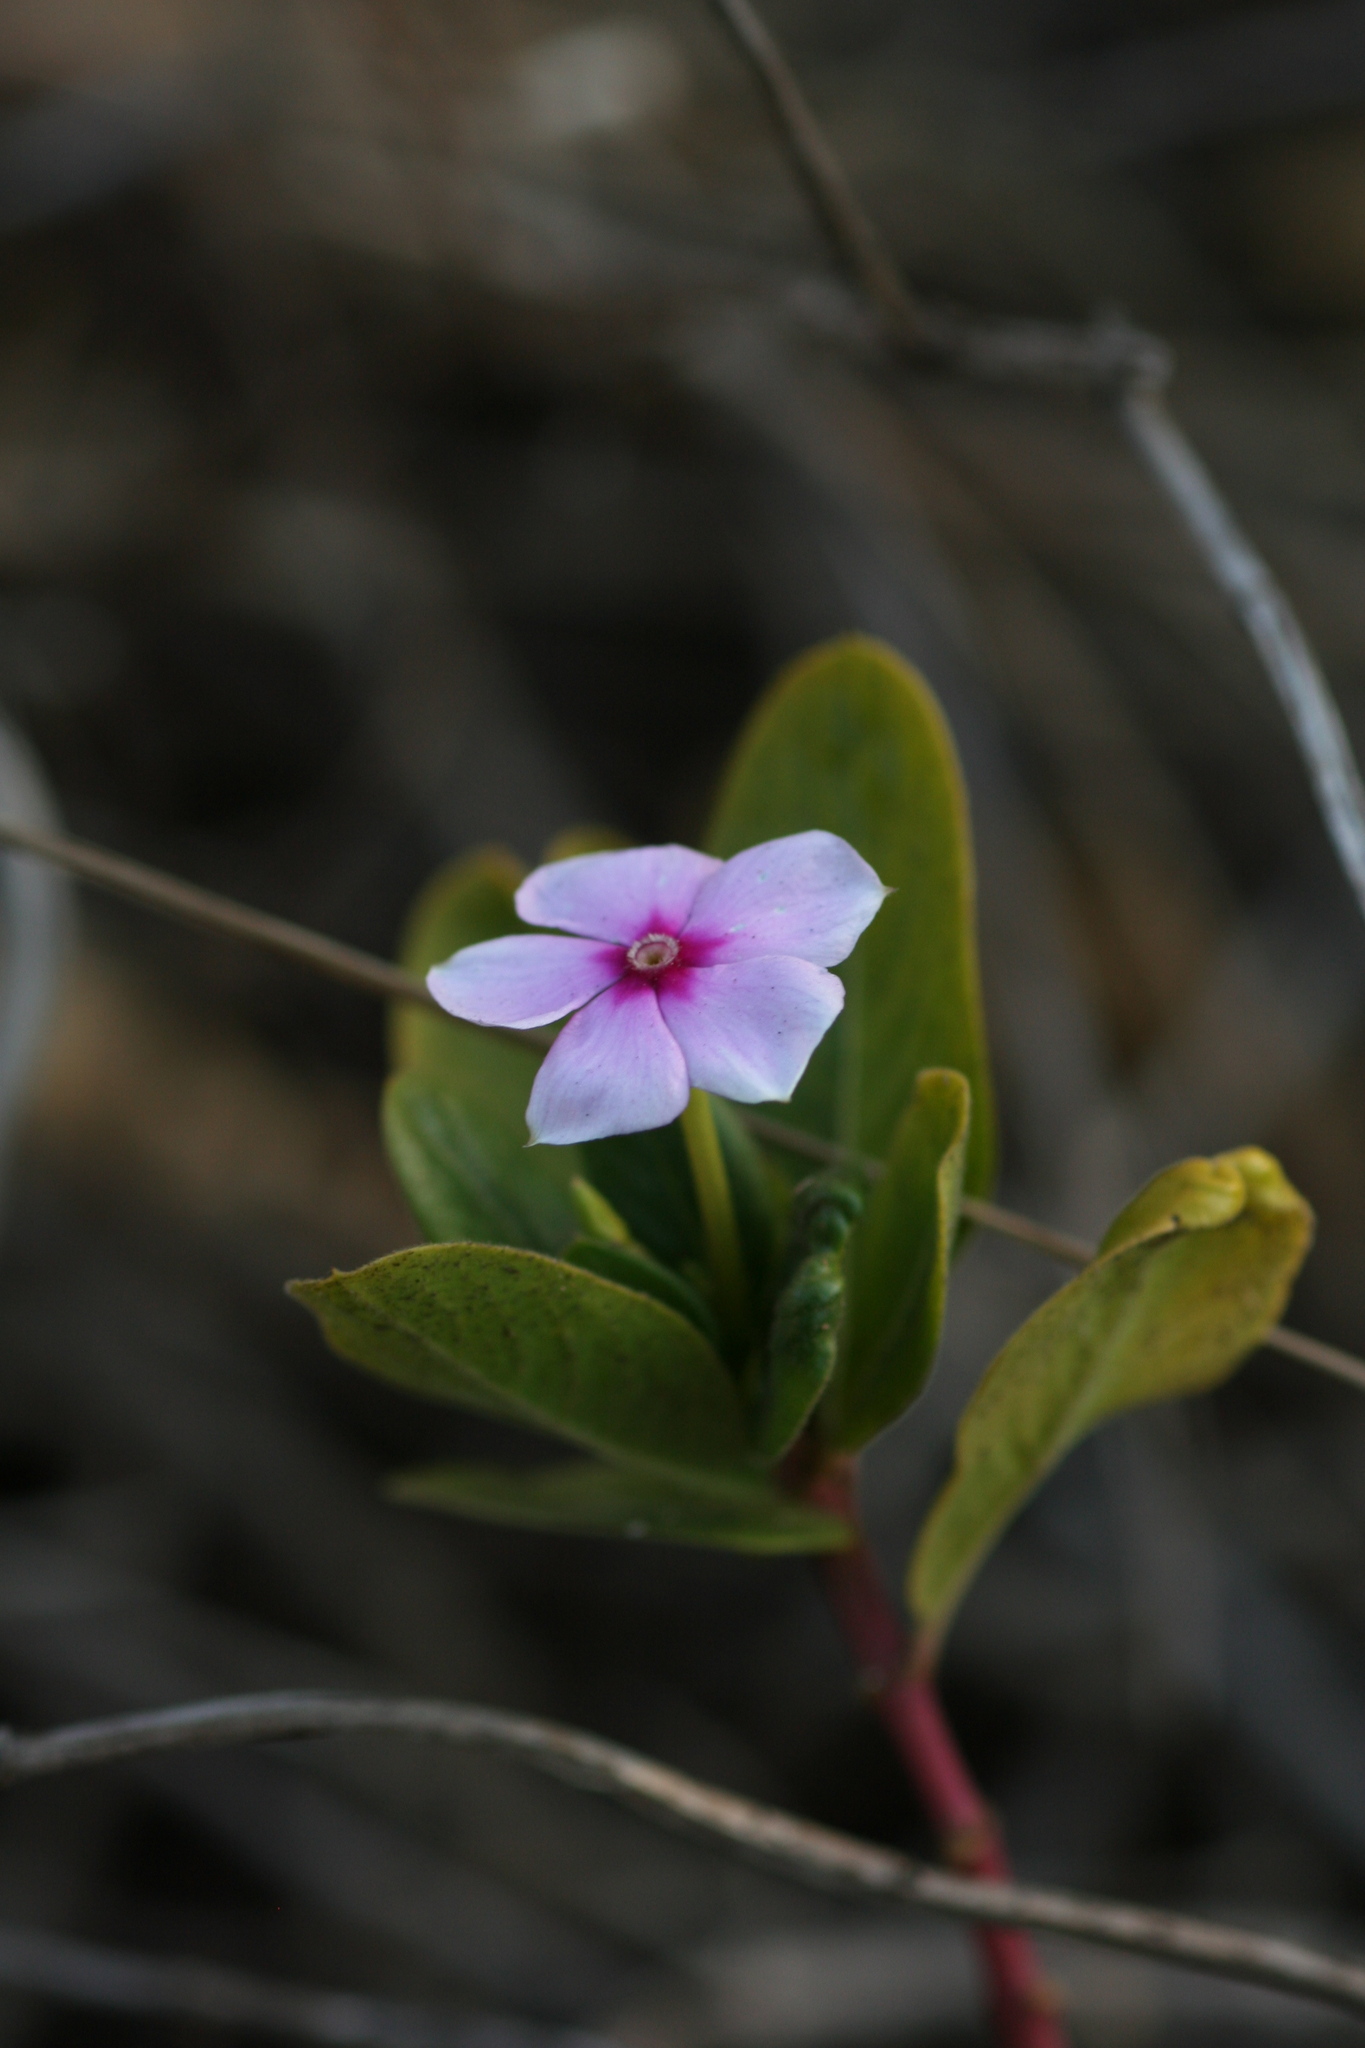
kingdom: Plantae
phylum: Tracheophyta
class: Magnoliopsida
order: Gentianales
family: Apocynaceae
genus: Catharanthus
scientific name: Catharanthus roseus
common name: Madagascar periwinkle
